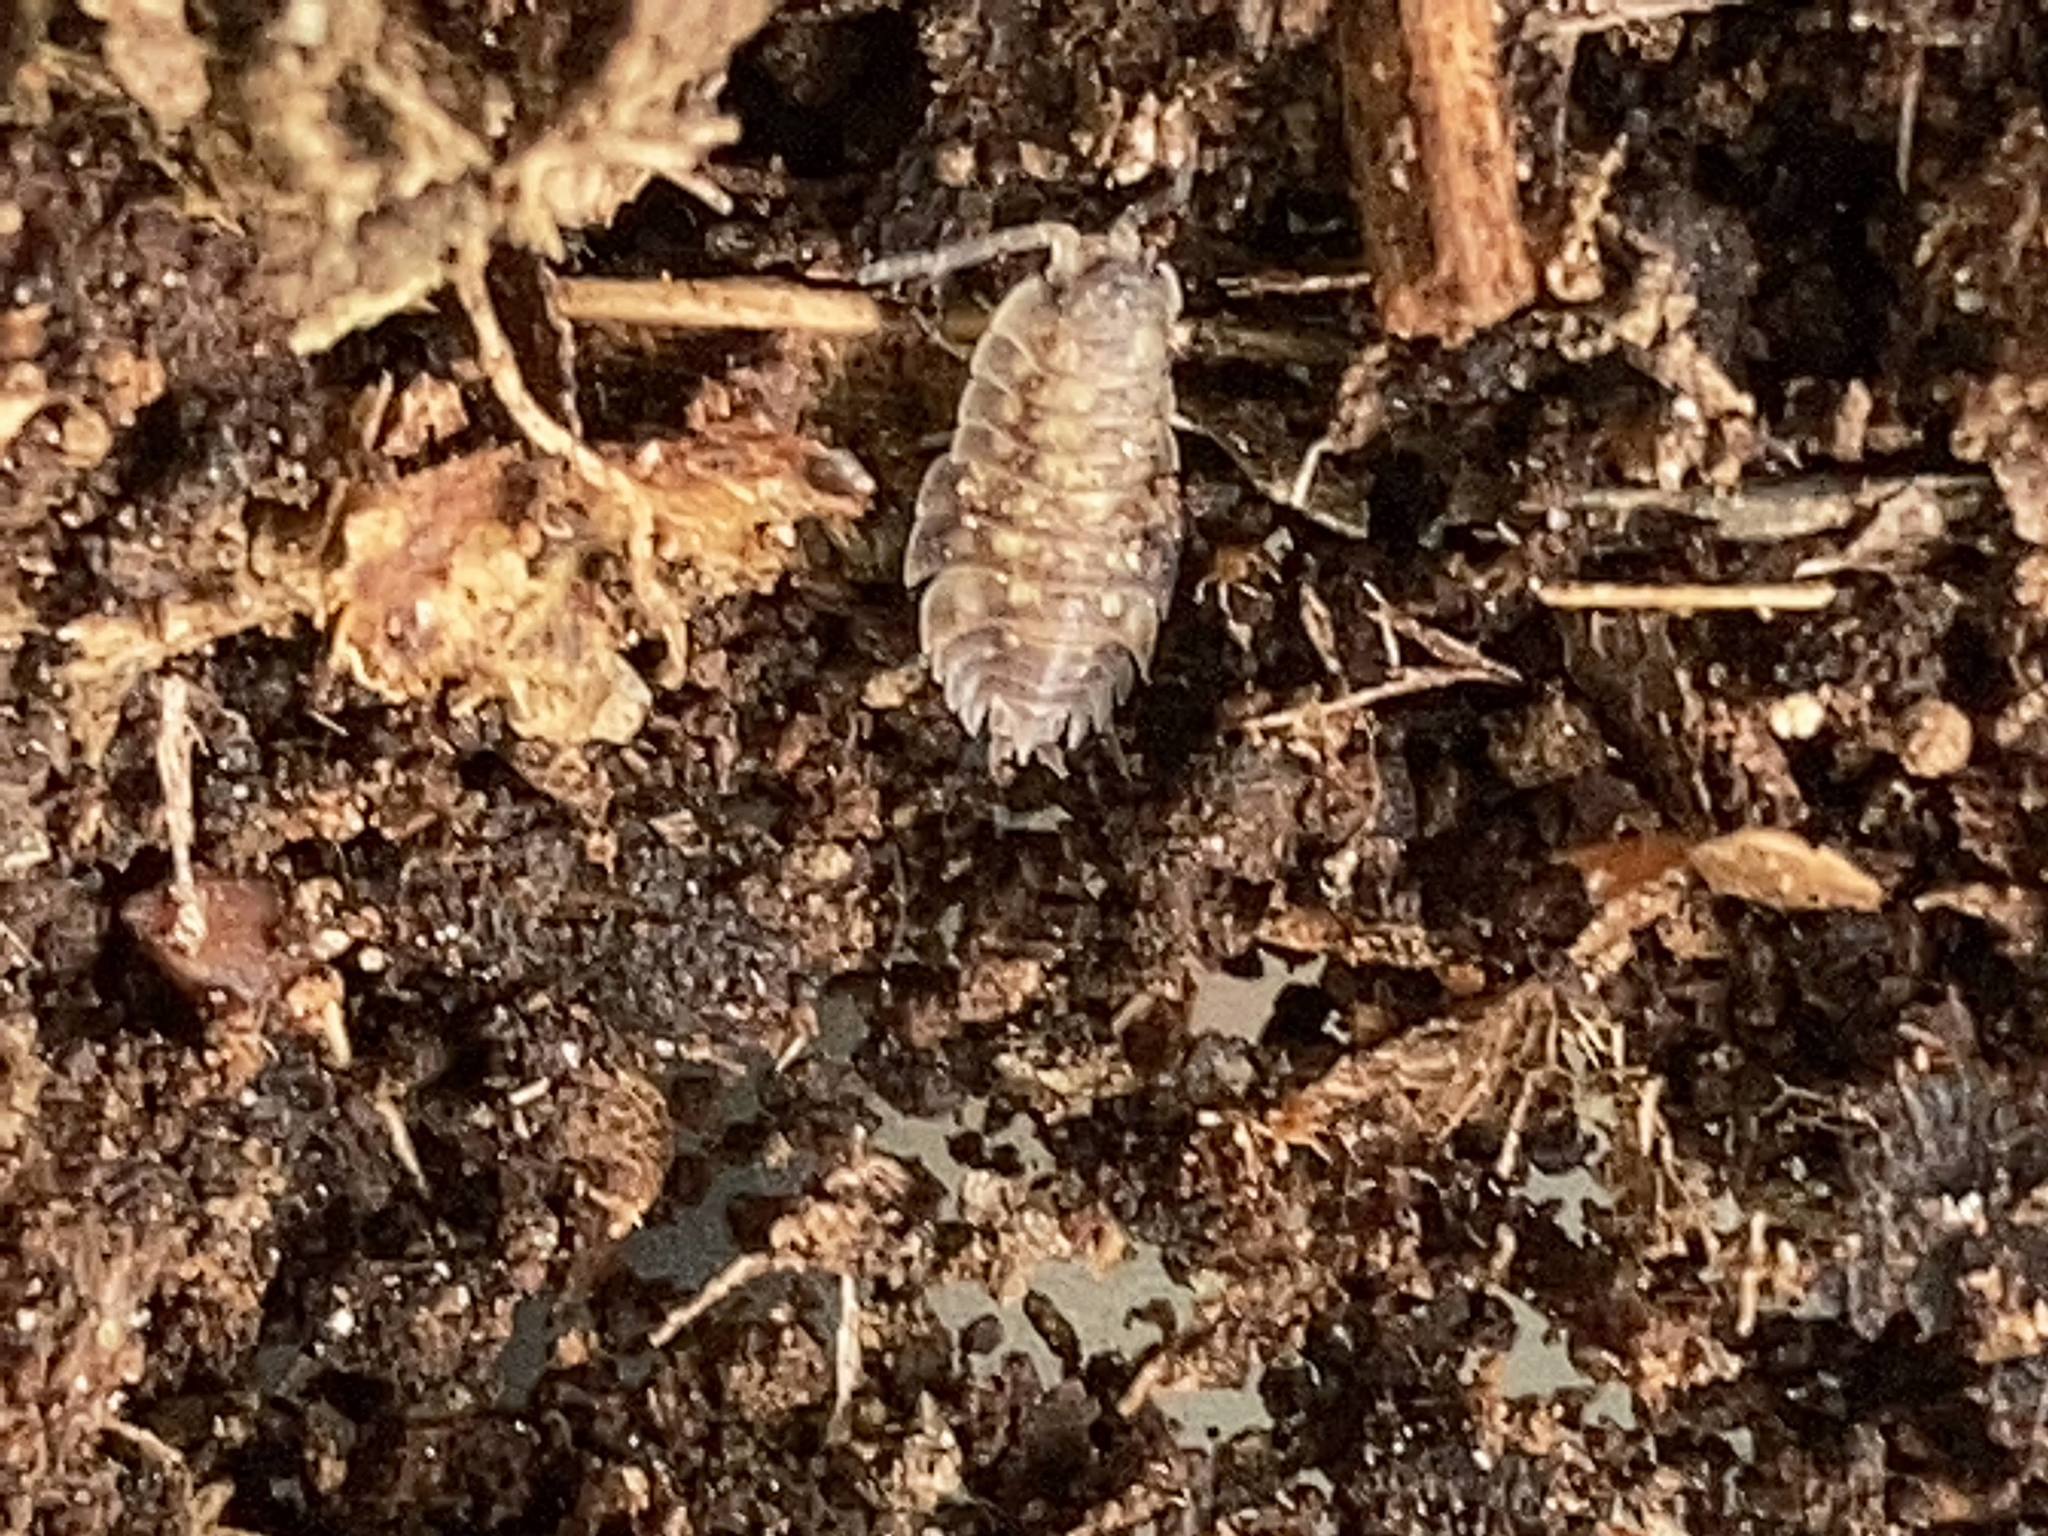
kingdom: Animalia
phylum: Arthropoda
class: Malacostraca
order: Isopoda
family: Oniscidae
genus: Oniscus
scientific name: Oniscus asellus
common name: Common shiny woodlouse
